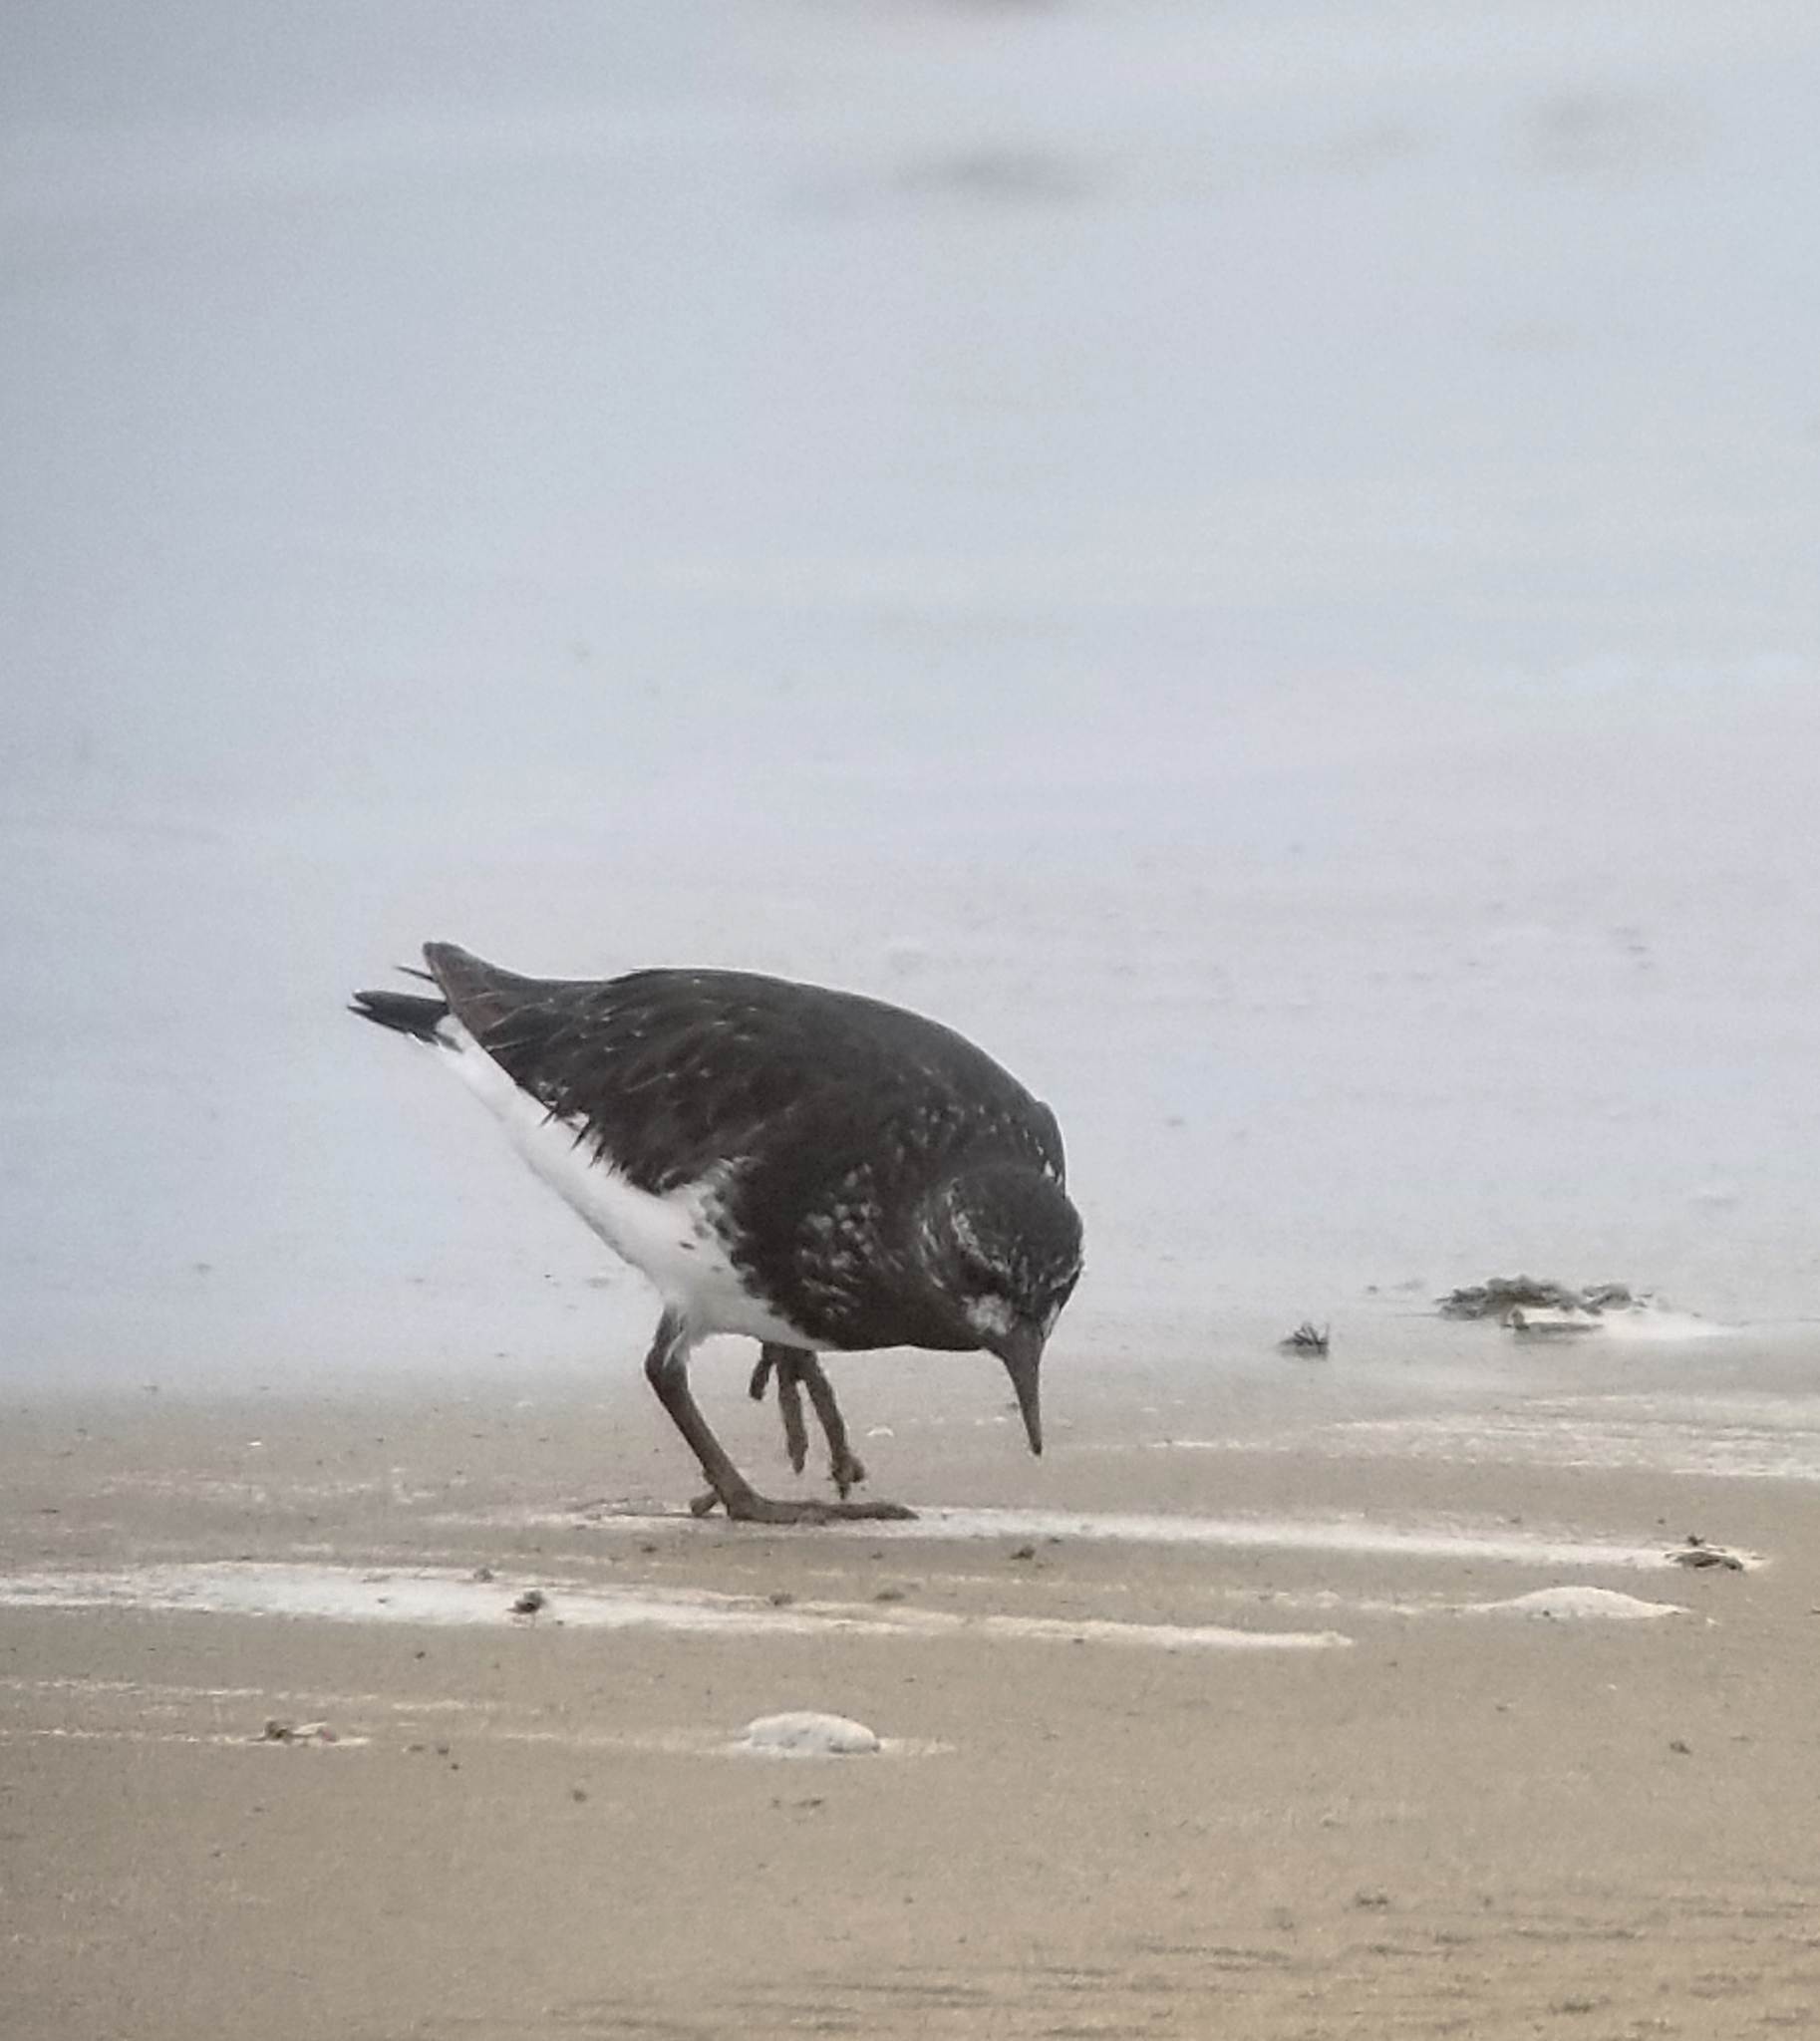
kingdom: Animalia
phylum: Chordata
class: Aves
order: Charadriiformes
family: Scolopacidae
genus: Arenaria
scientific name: Arenaria melanocephala
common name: Black turnstone
